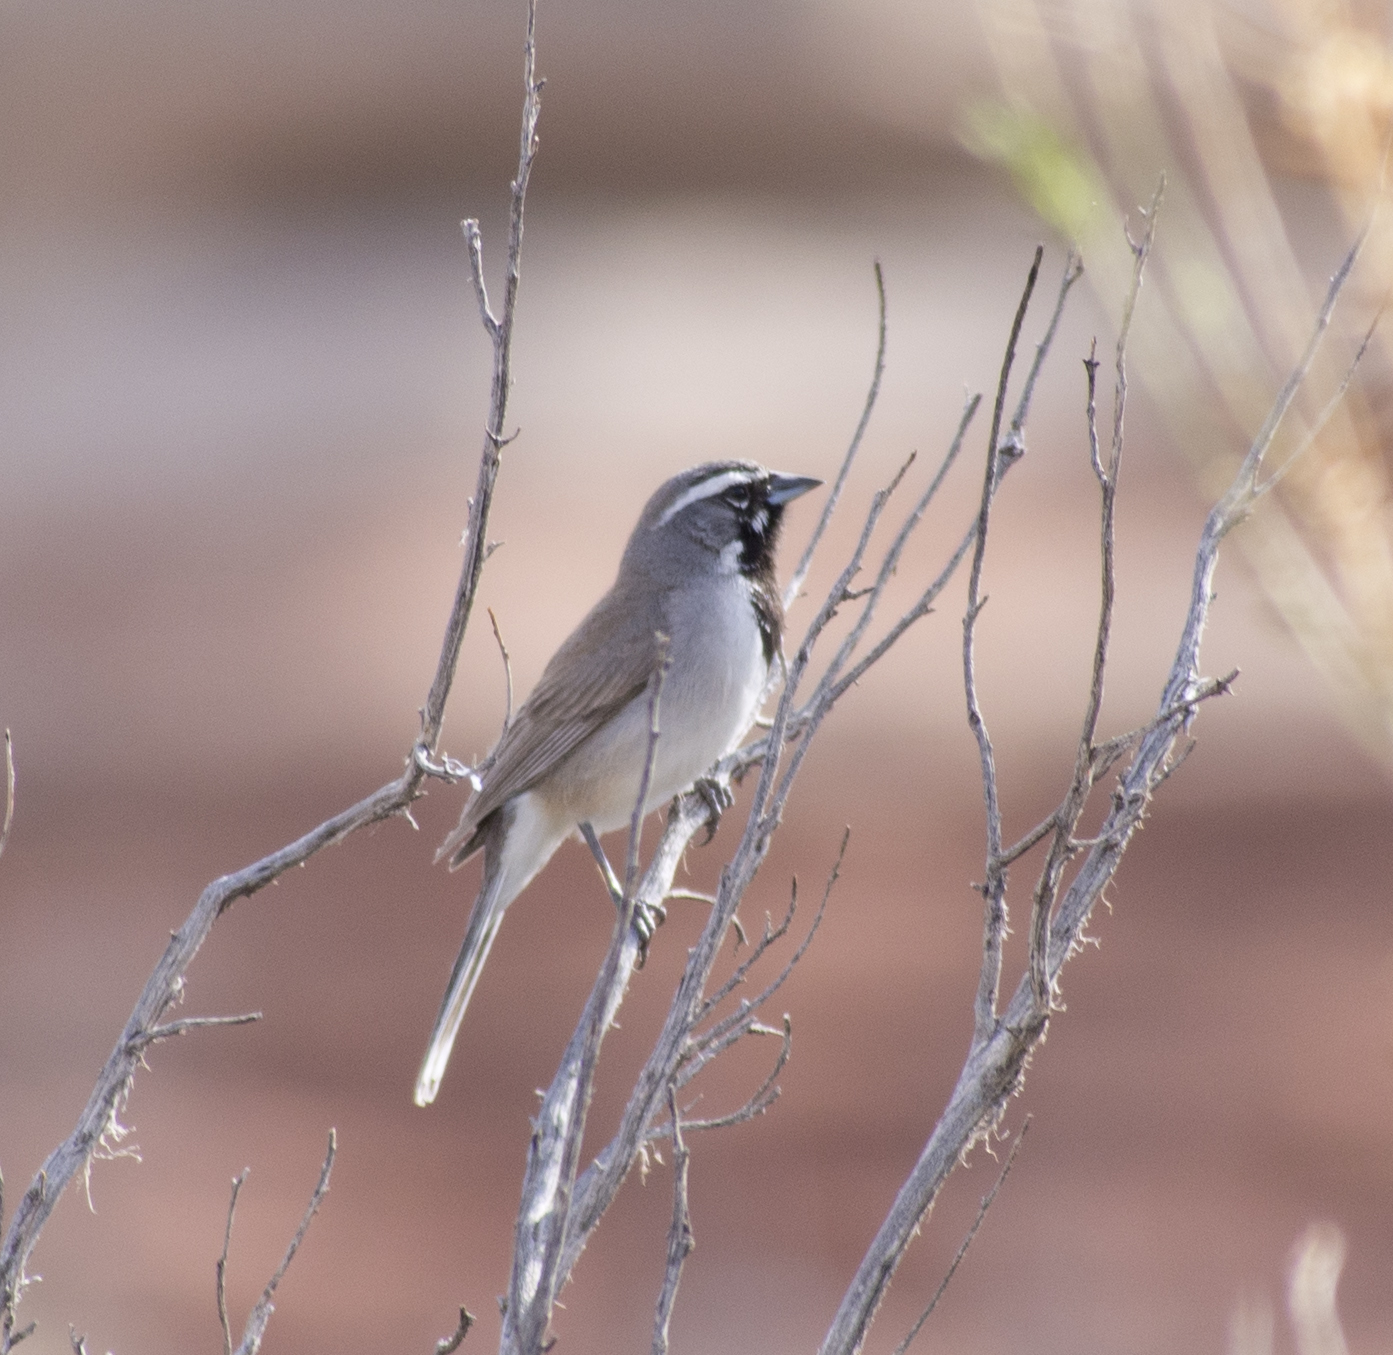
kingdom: Animalia
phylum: Chordata
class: Aves
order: Passeriformes
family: Passerellidae
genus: Amphispiza
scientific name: Amphispiza bilineata
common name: Black-throated sparrow
